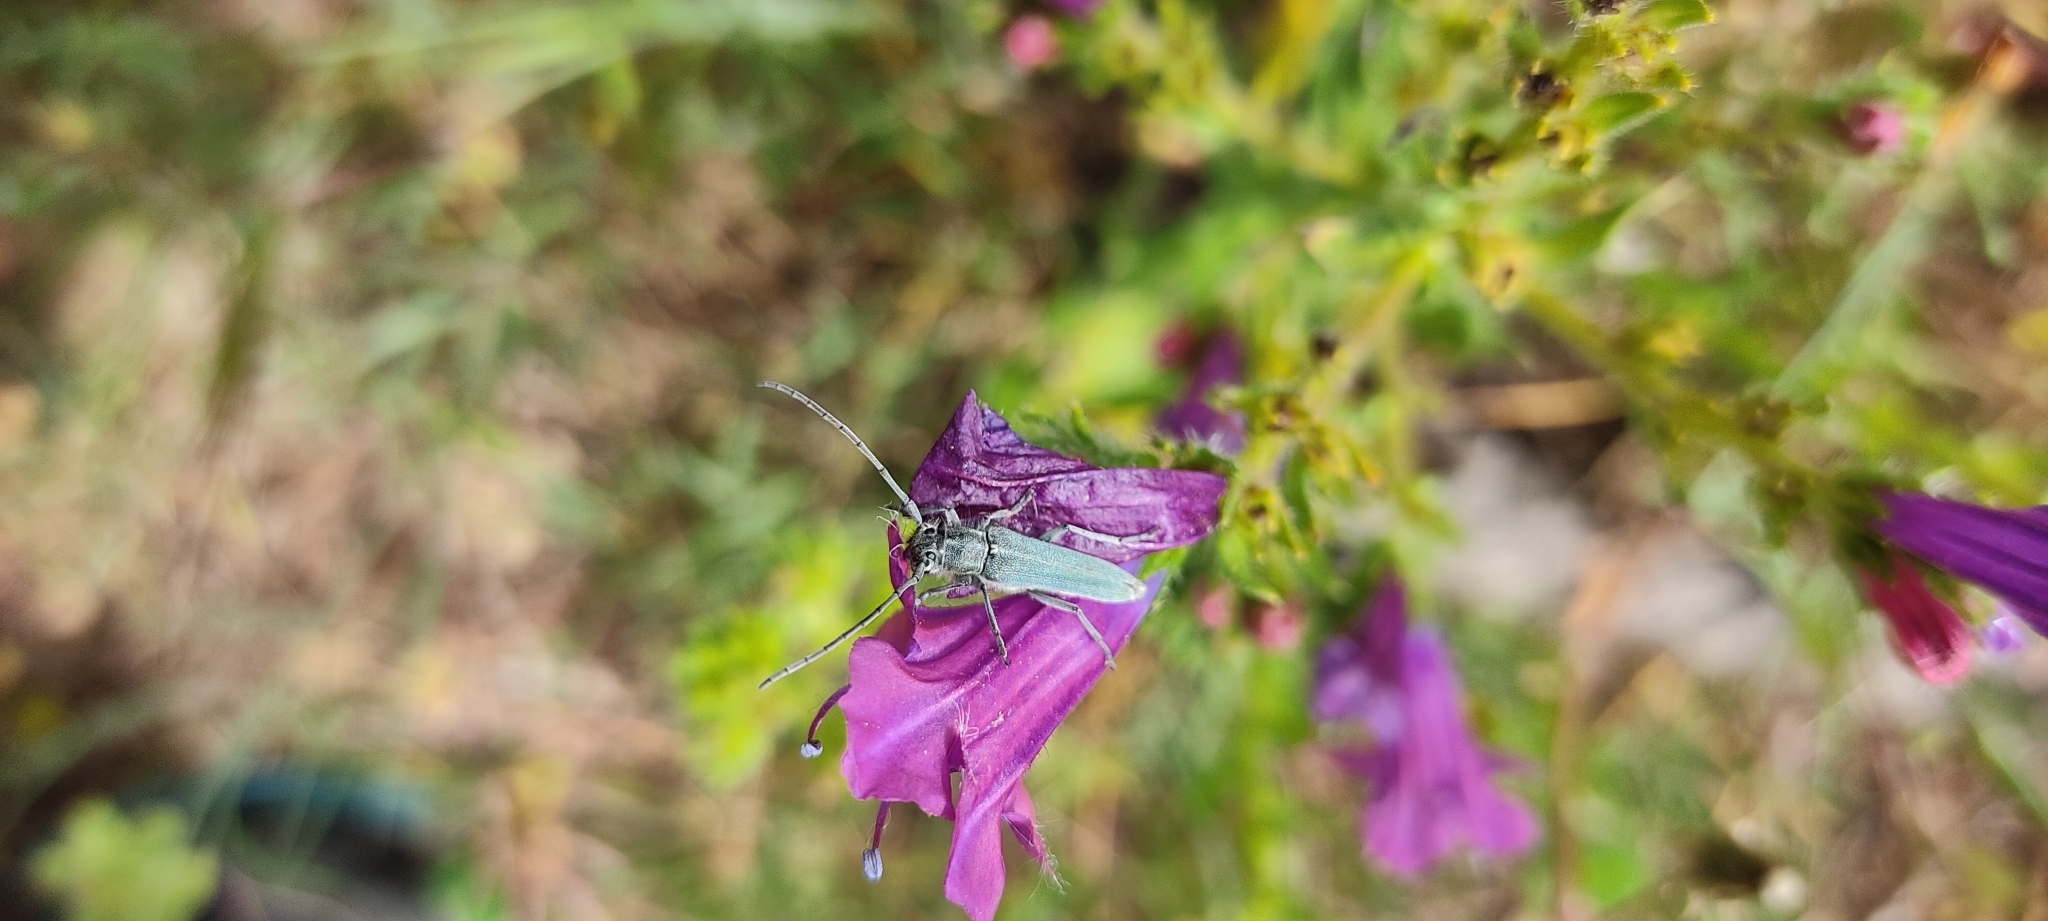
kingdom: Animalia
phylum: Arthropoda
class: Insecta
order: Coleoptera
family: Cerambycidae
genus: Phytoecia
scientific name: Phytoecia coerulescens
